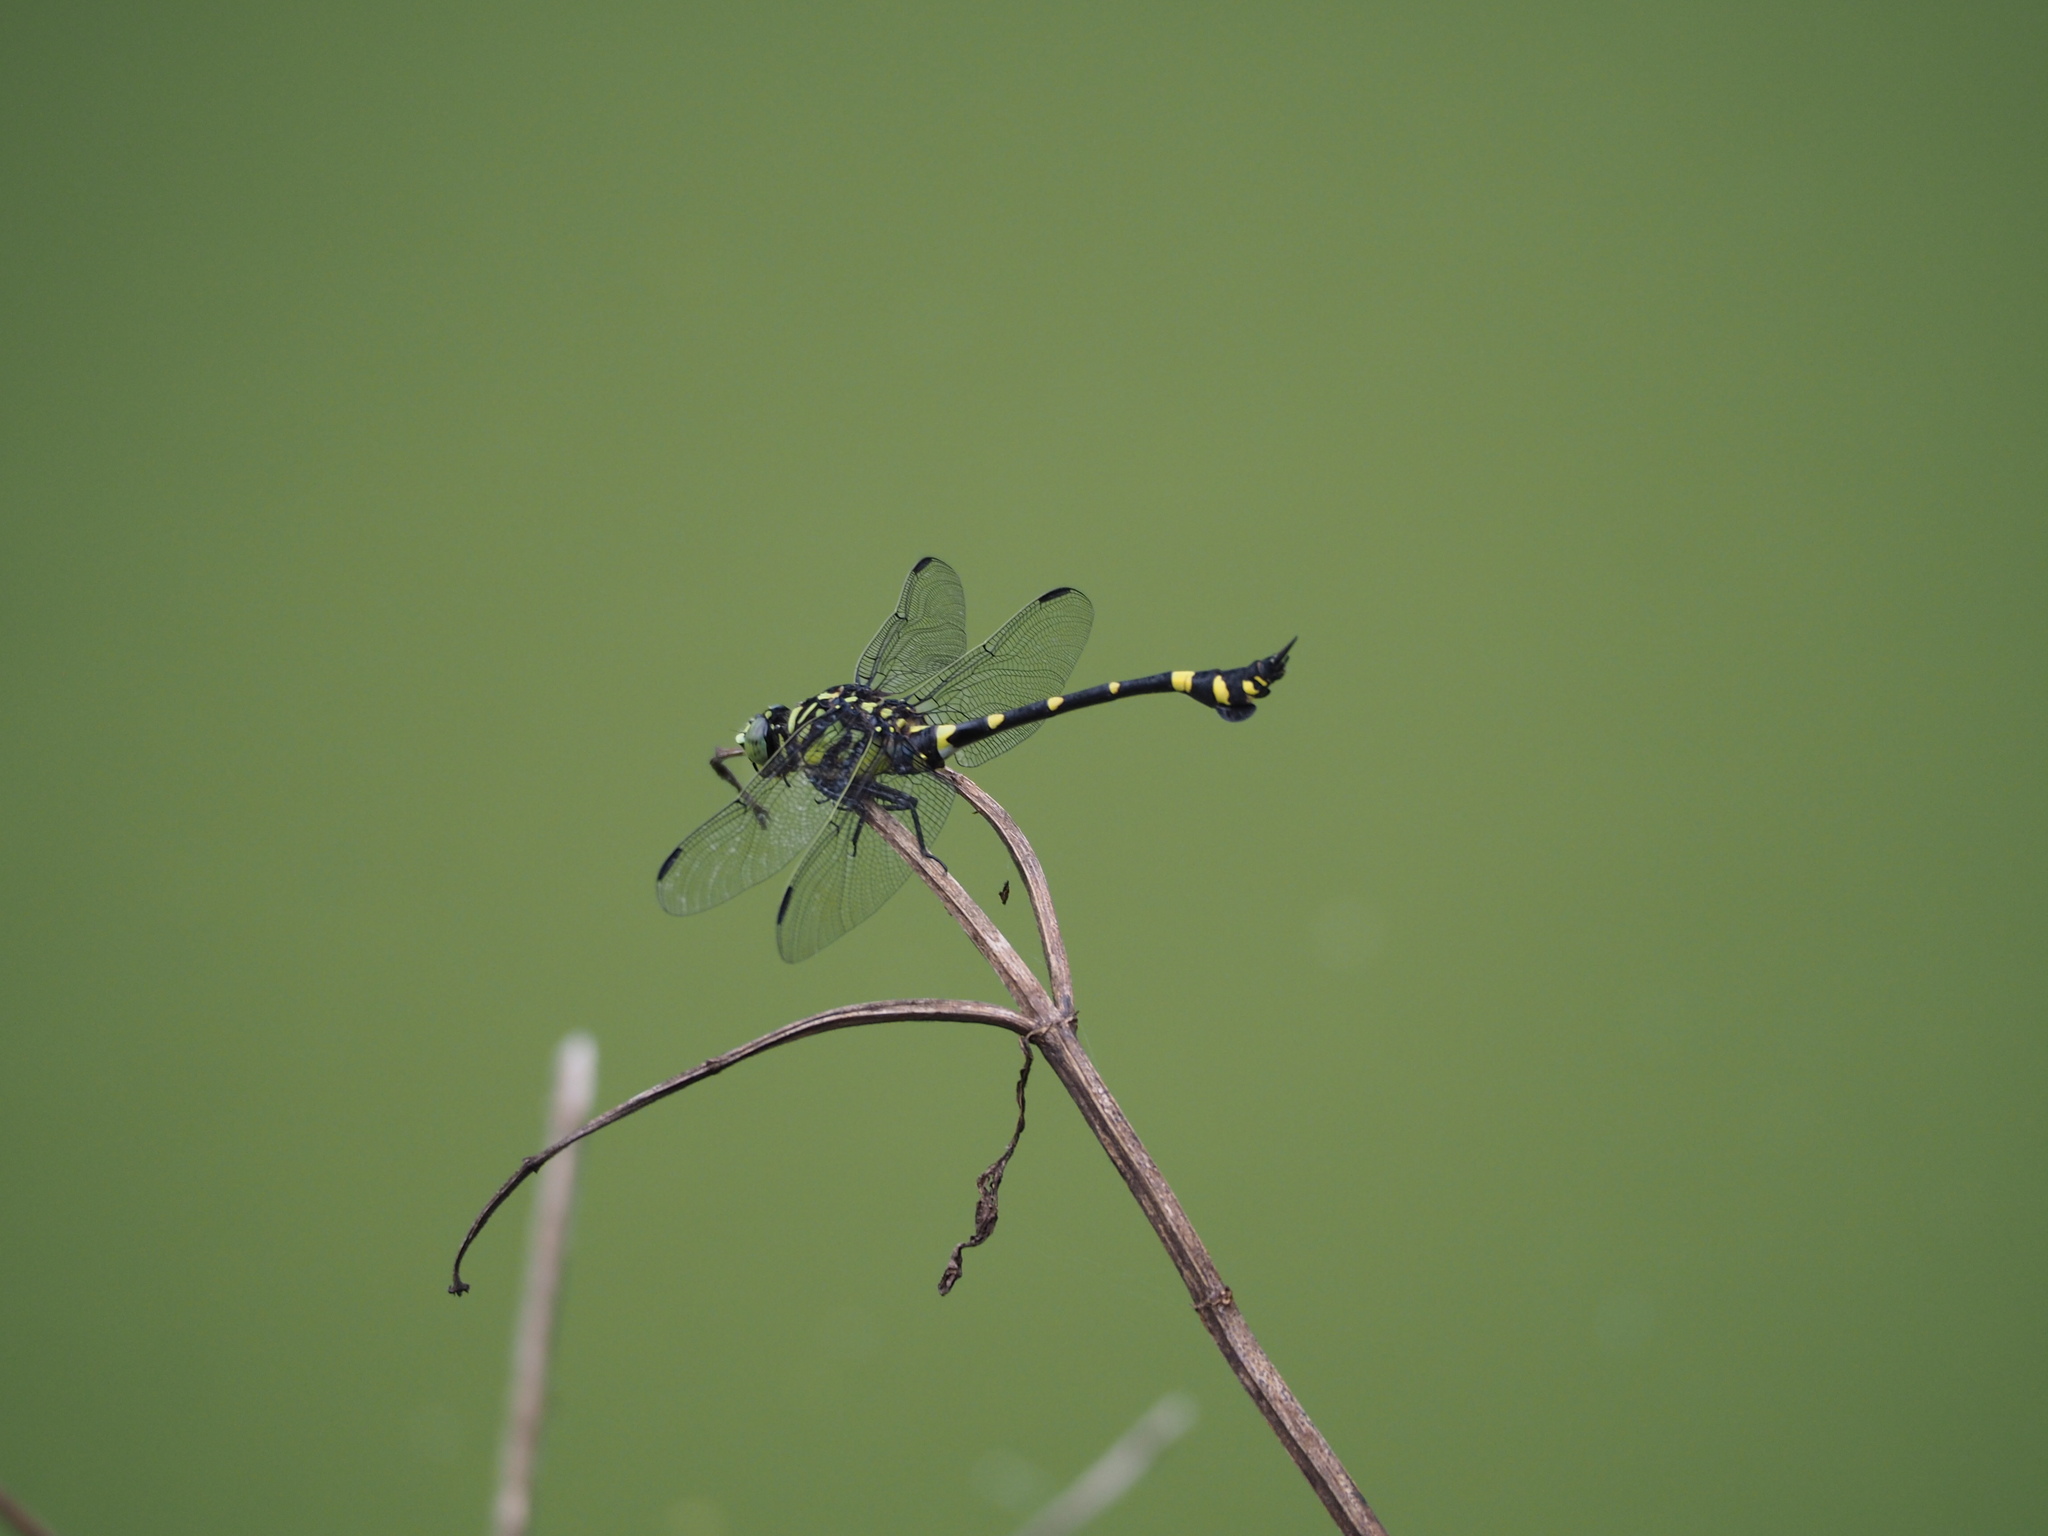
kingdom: Animalia
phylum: Arthropoda
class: Insecta
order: Odonata
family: Gomphidae
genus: Ictinogomphus
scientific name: Ictinogomphus rapax
